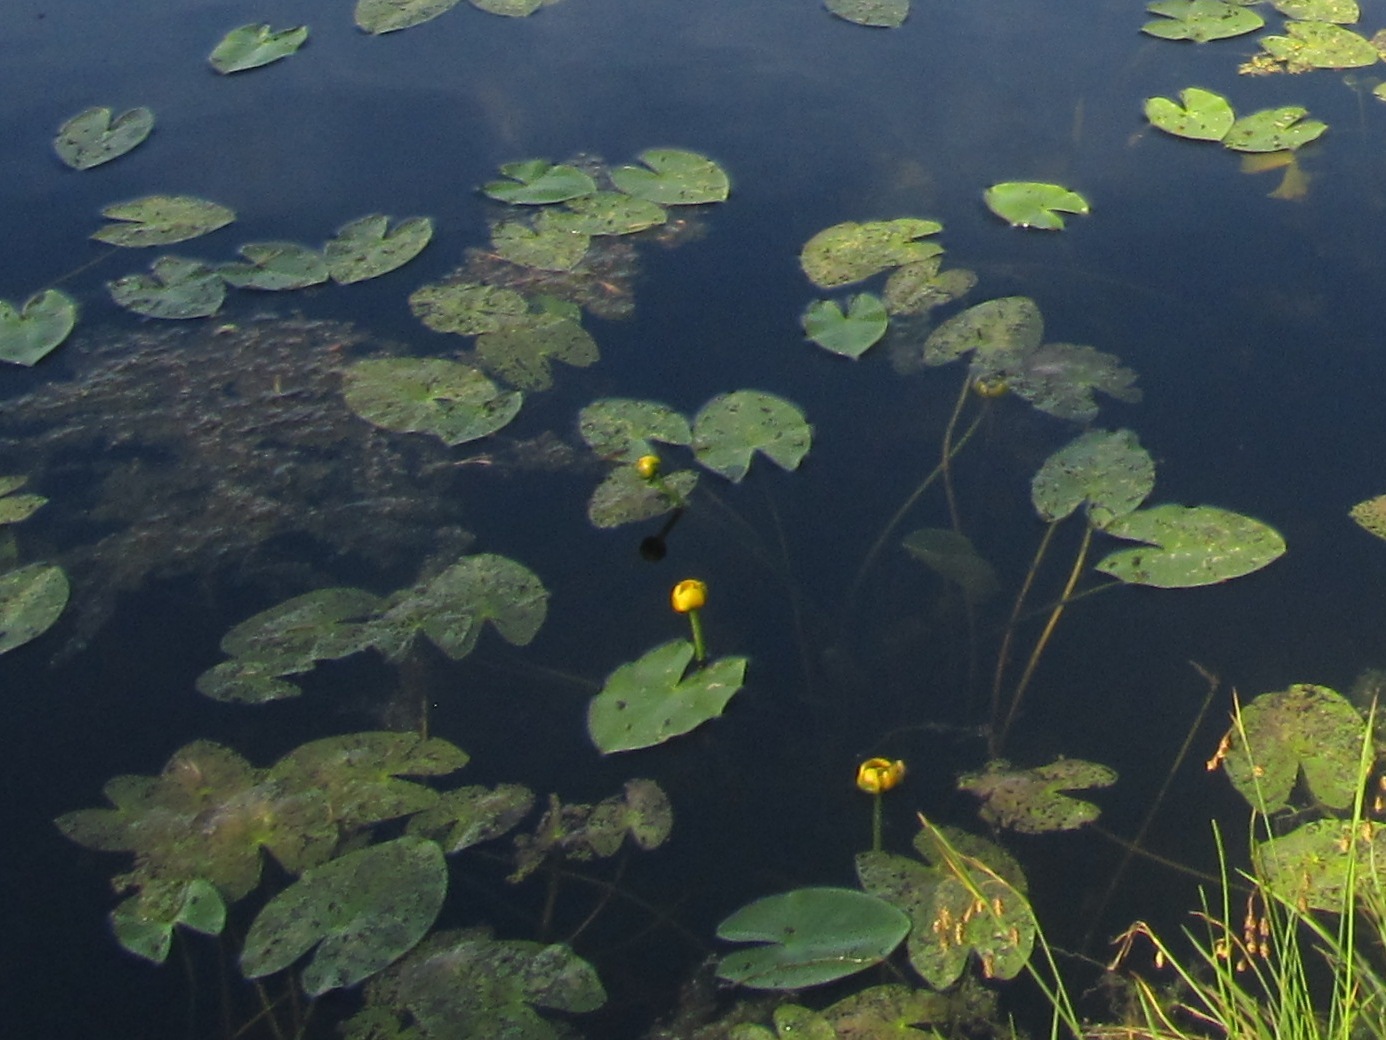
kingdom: Plantae
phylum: Tracheophyta
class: Magnoliopsida
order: Nymphaeales
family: Nymphaeaceae
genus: Nuphar
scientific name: Nuphar lutea
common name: Yellow water-lily
